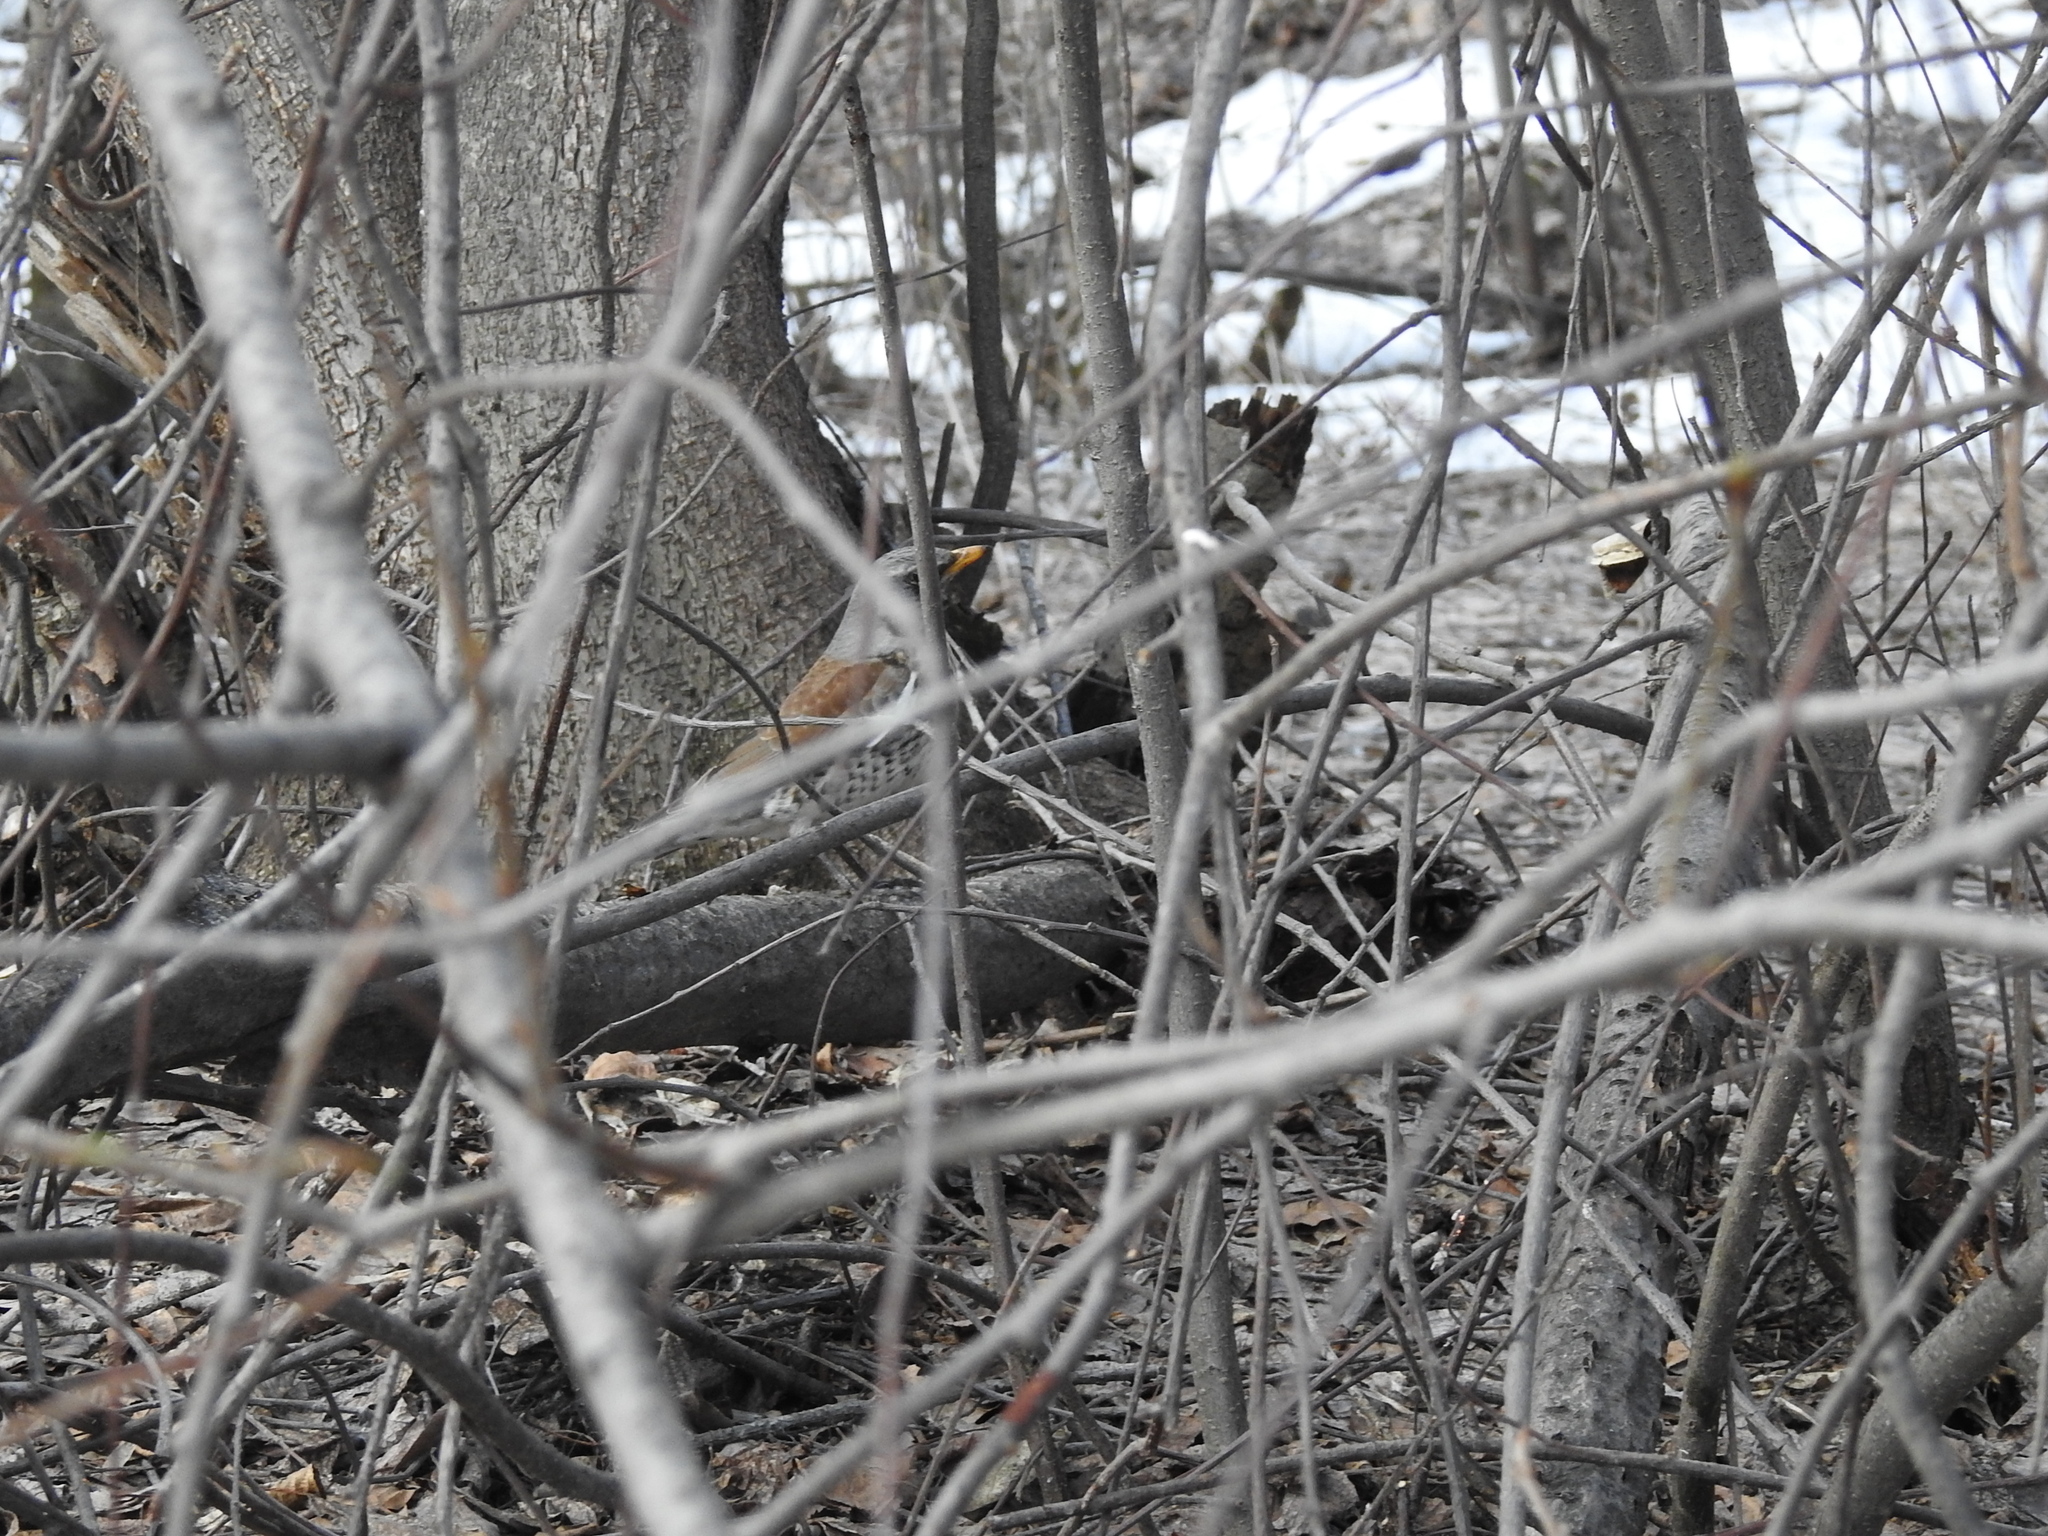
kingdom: Animalia
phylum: Chordata
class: Aves
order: Passeriformes
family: Turdidae
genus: Turdus
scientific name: Turdus pilaris
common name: Fieldfare
